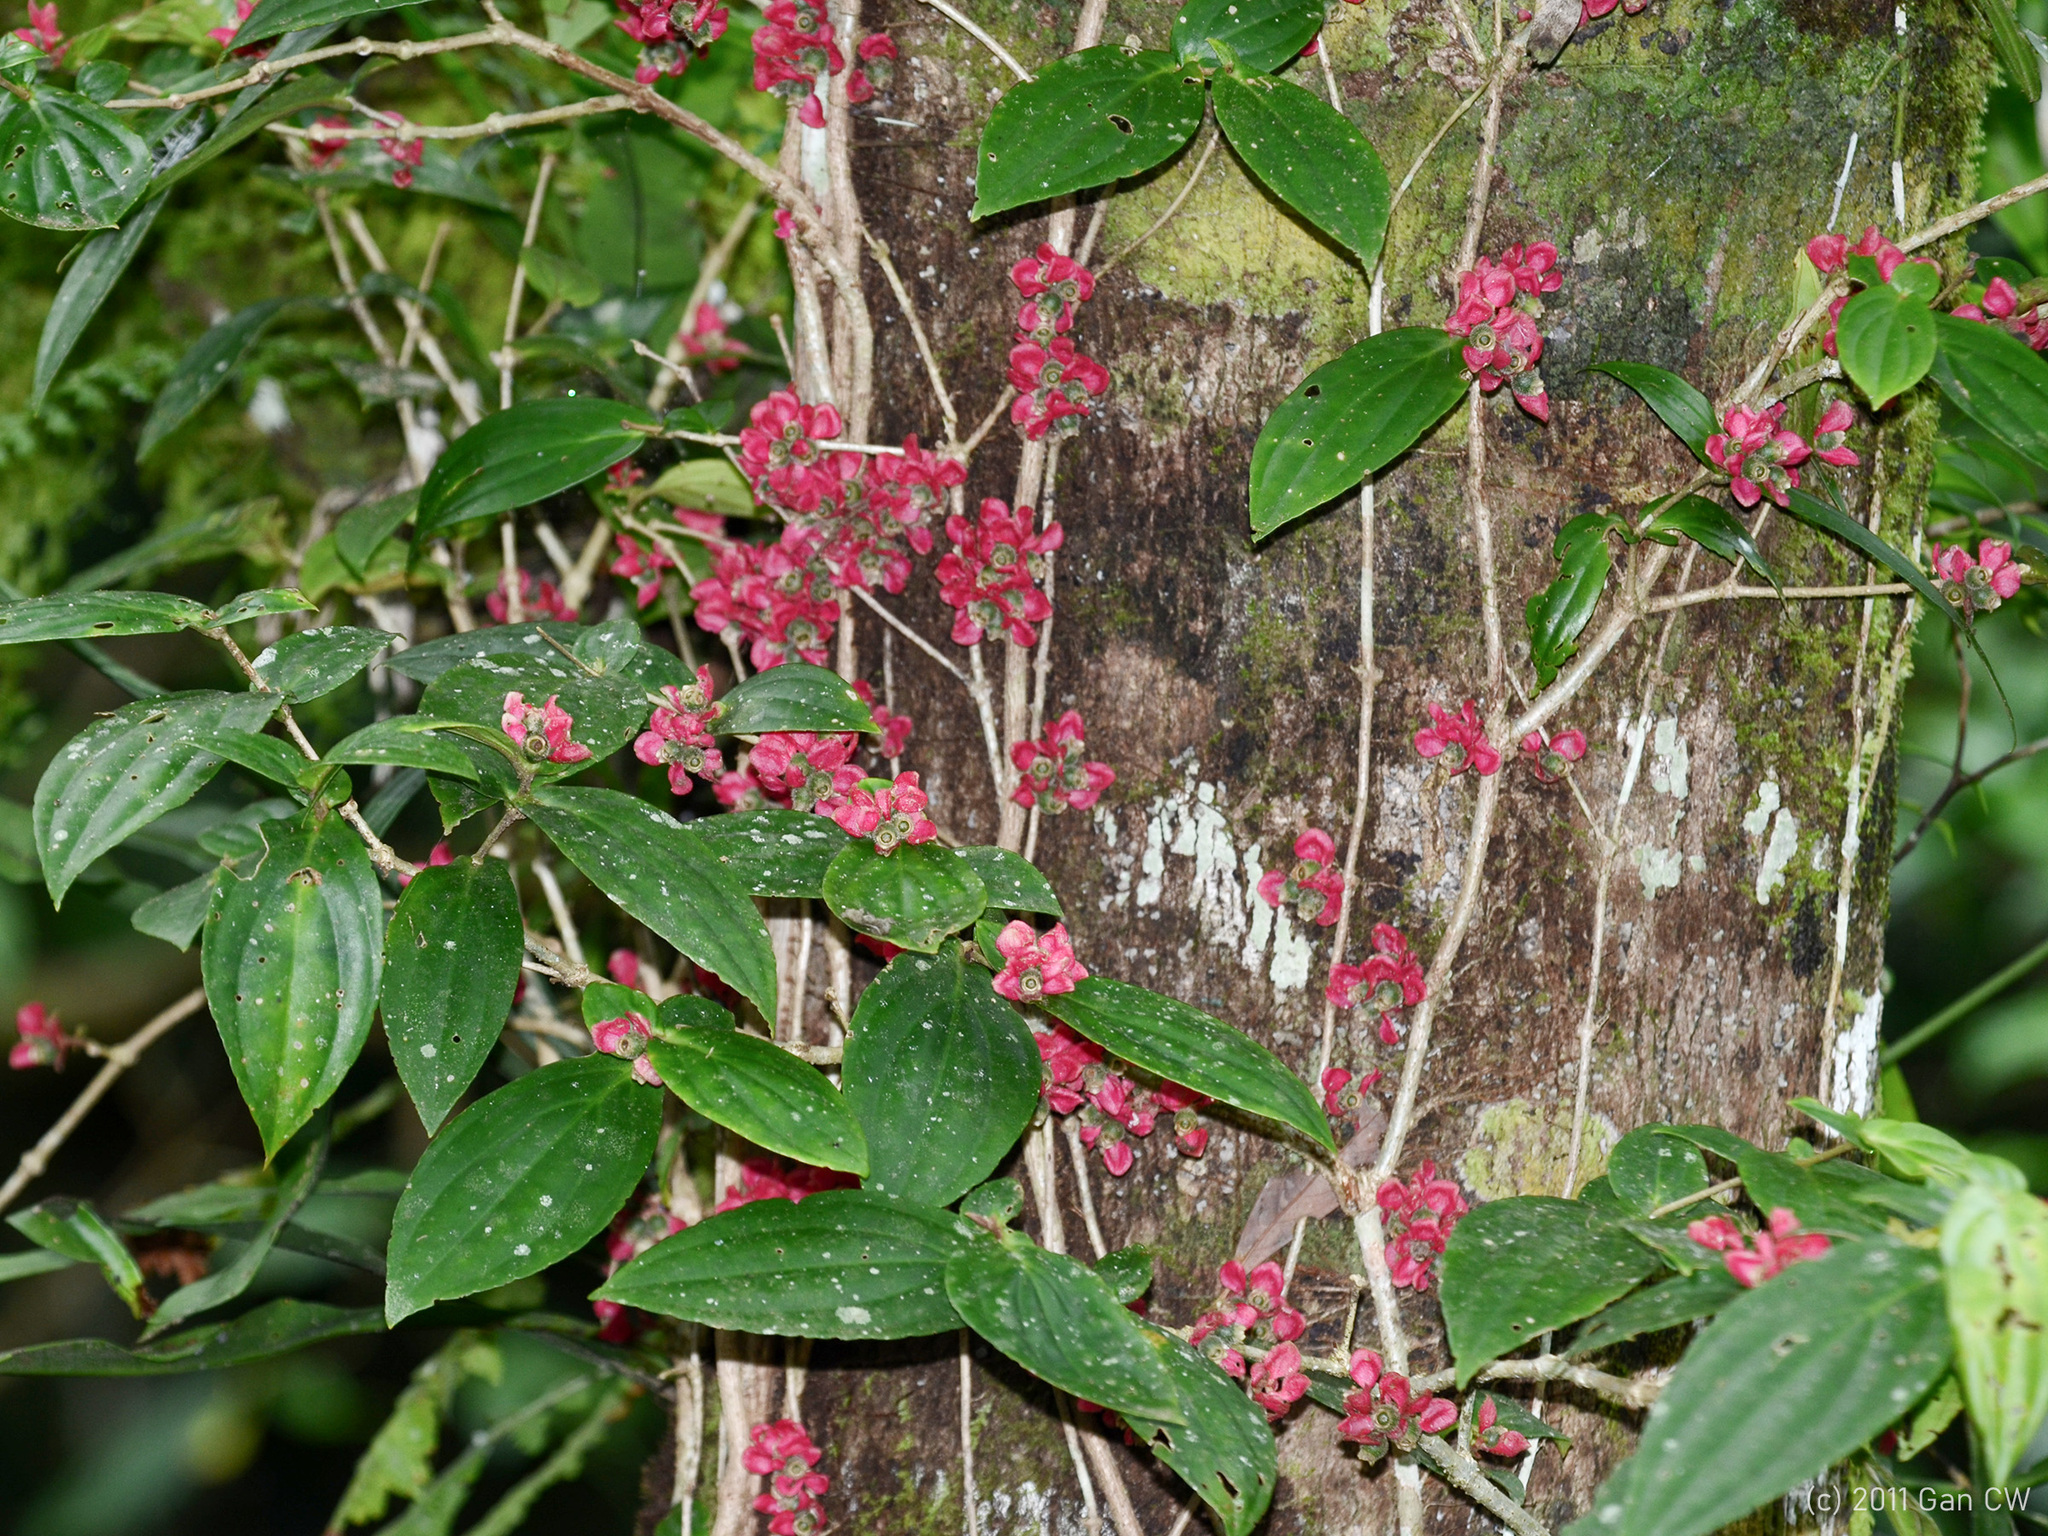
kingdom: Plantae
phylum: Tracheophyta
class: Magnoliopsida
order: Myrtales
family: Melastomataceae
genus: Medinilla
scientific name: Medinilla setigera
